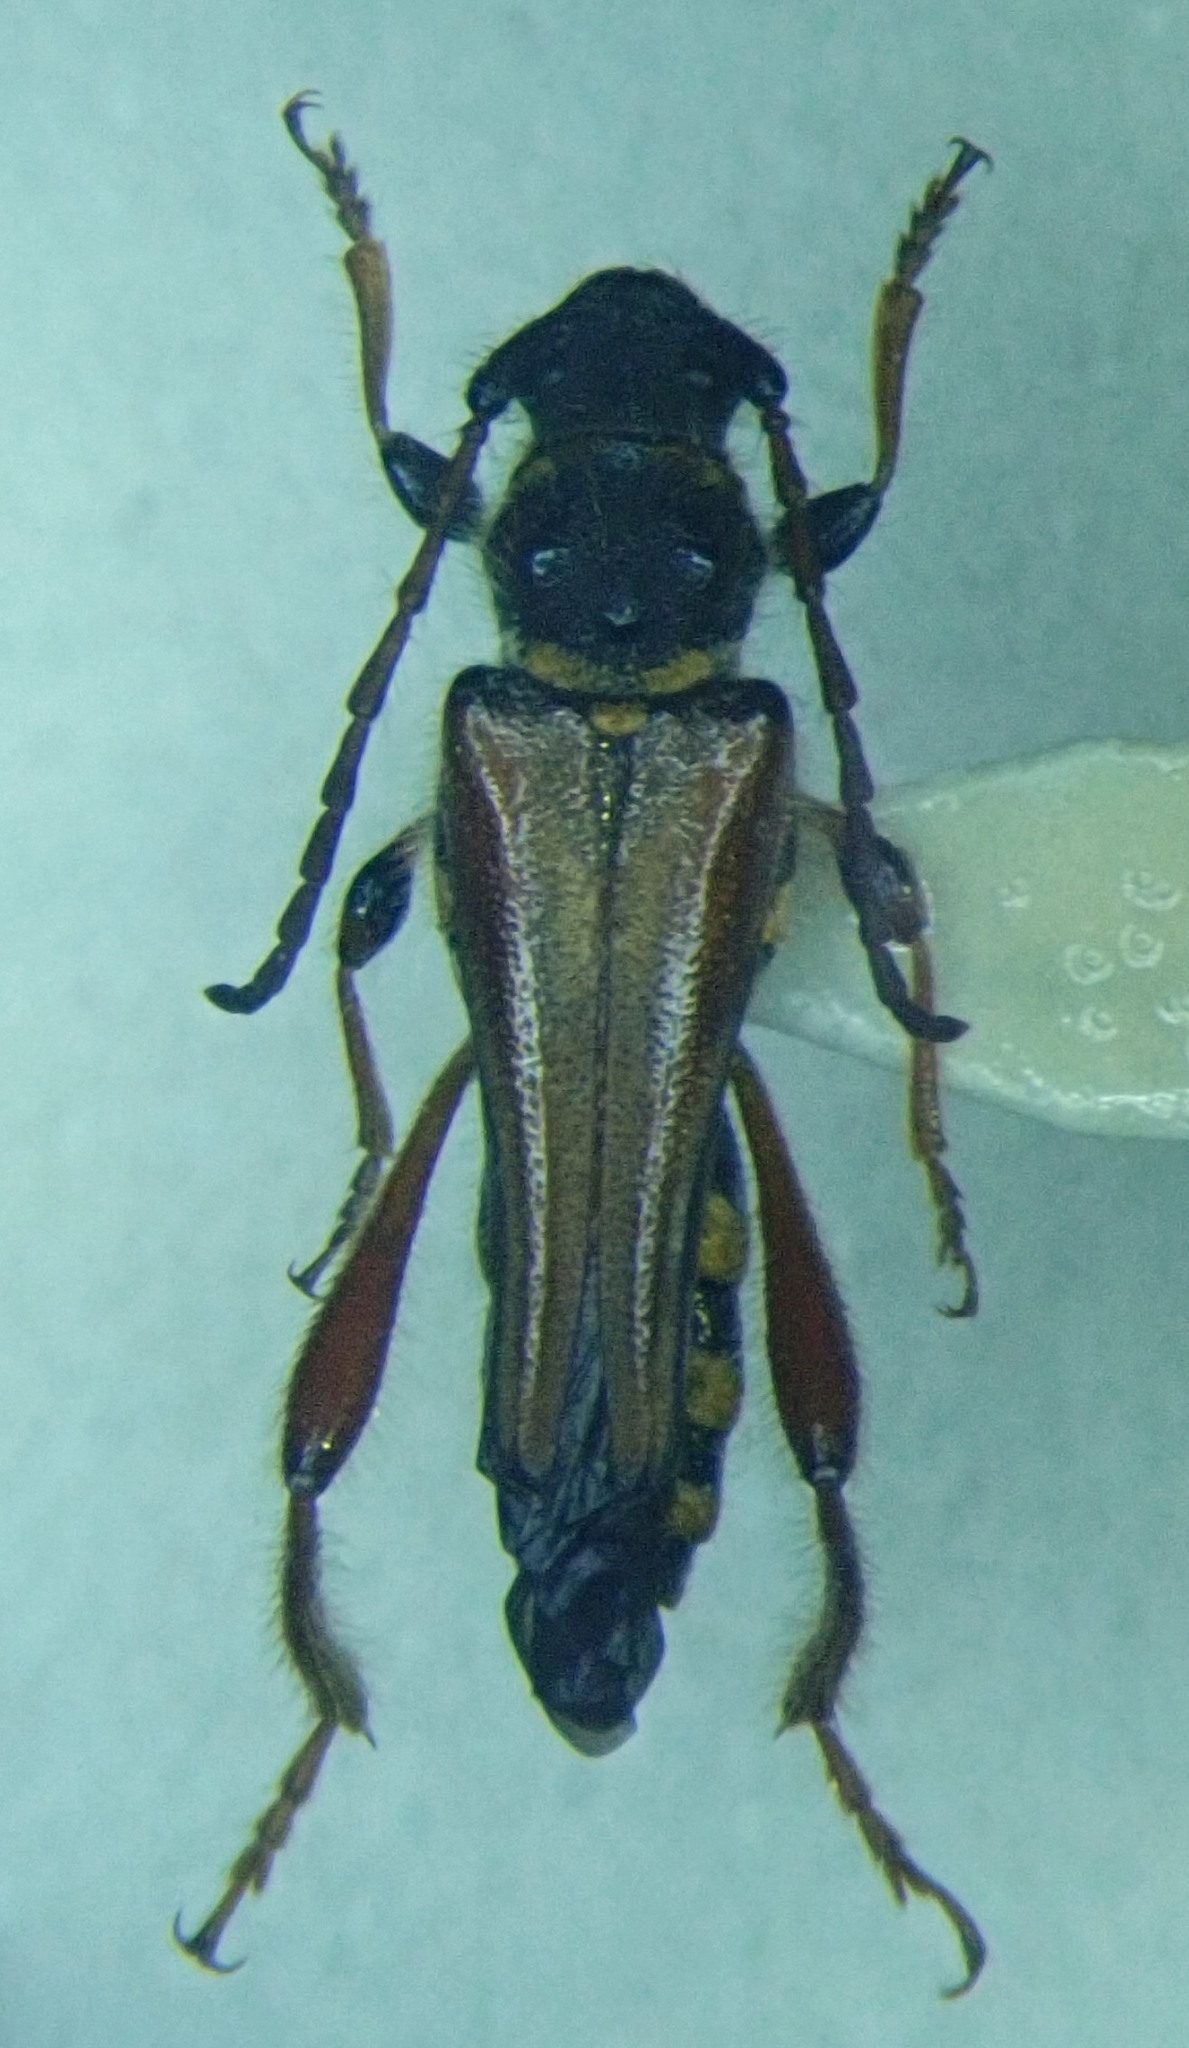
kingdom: Animalia
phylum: Arthropoda
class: Insecta
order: Coleoptera
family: Cerambycidae
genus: Stenopterus
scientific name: Stenopterus rufus
